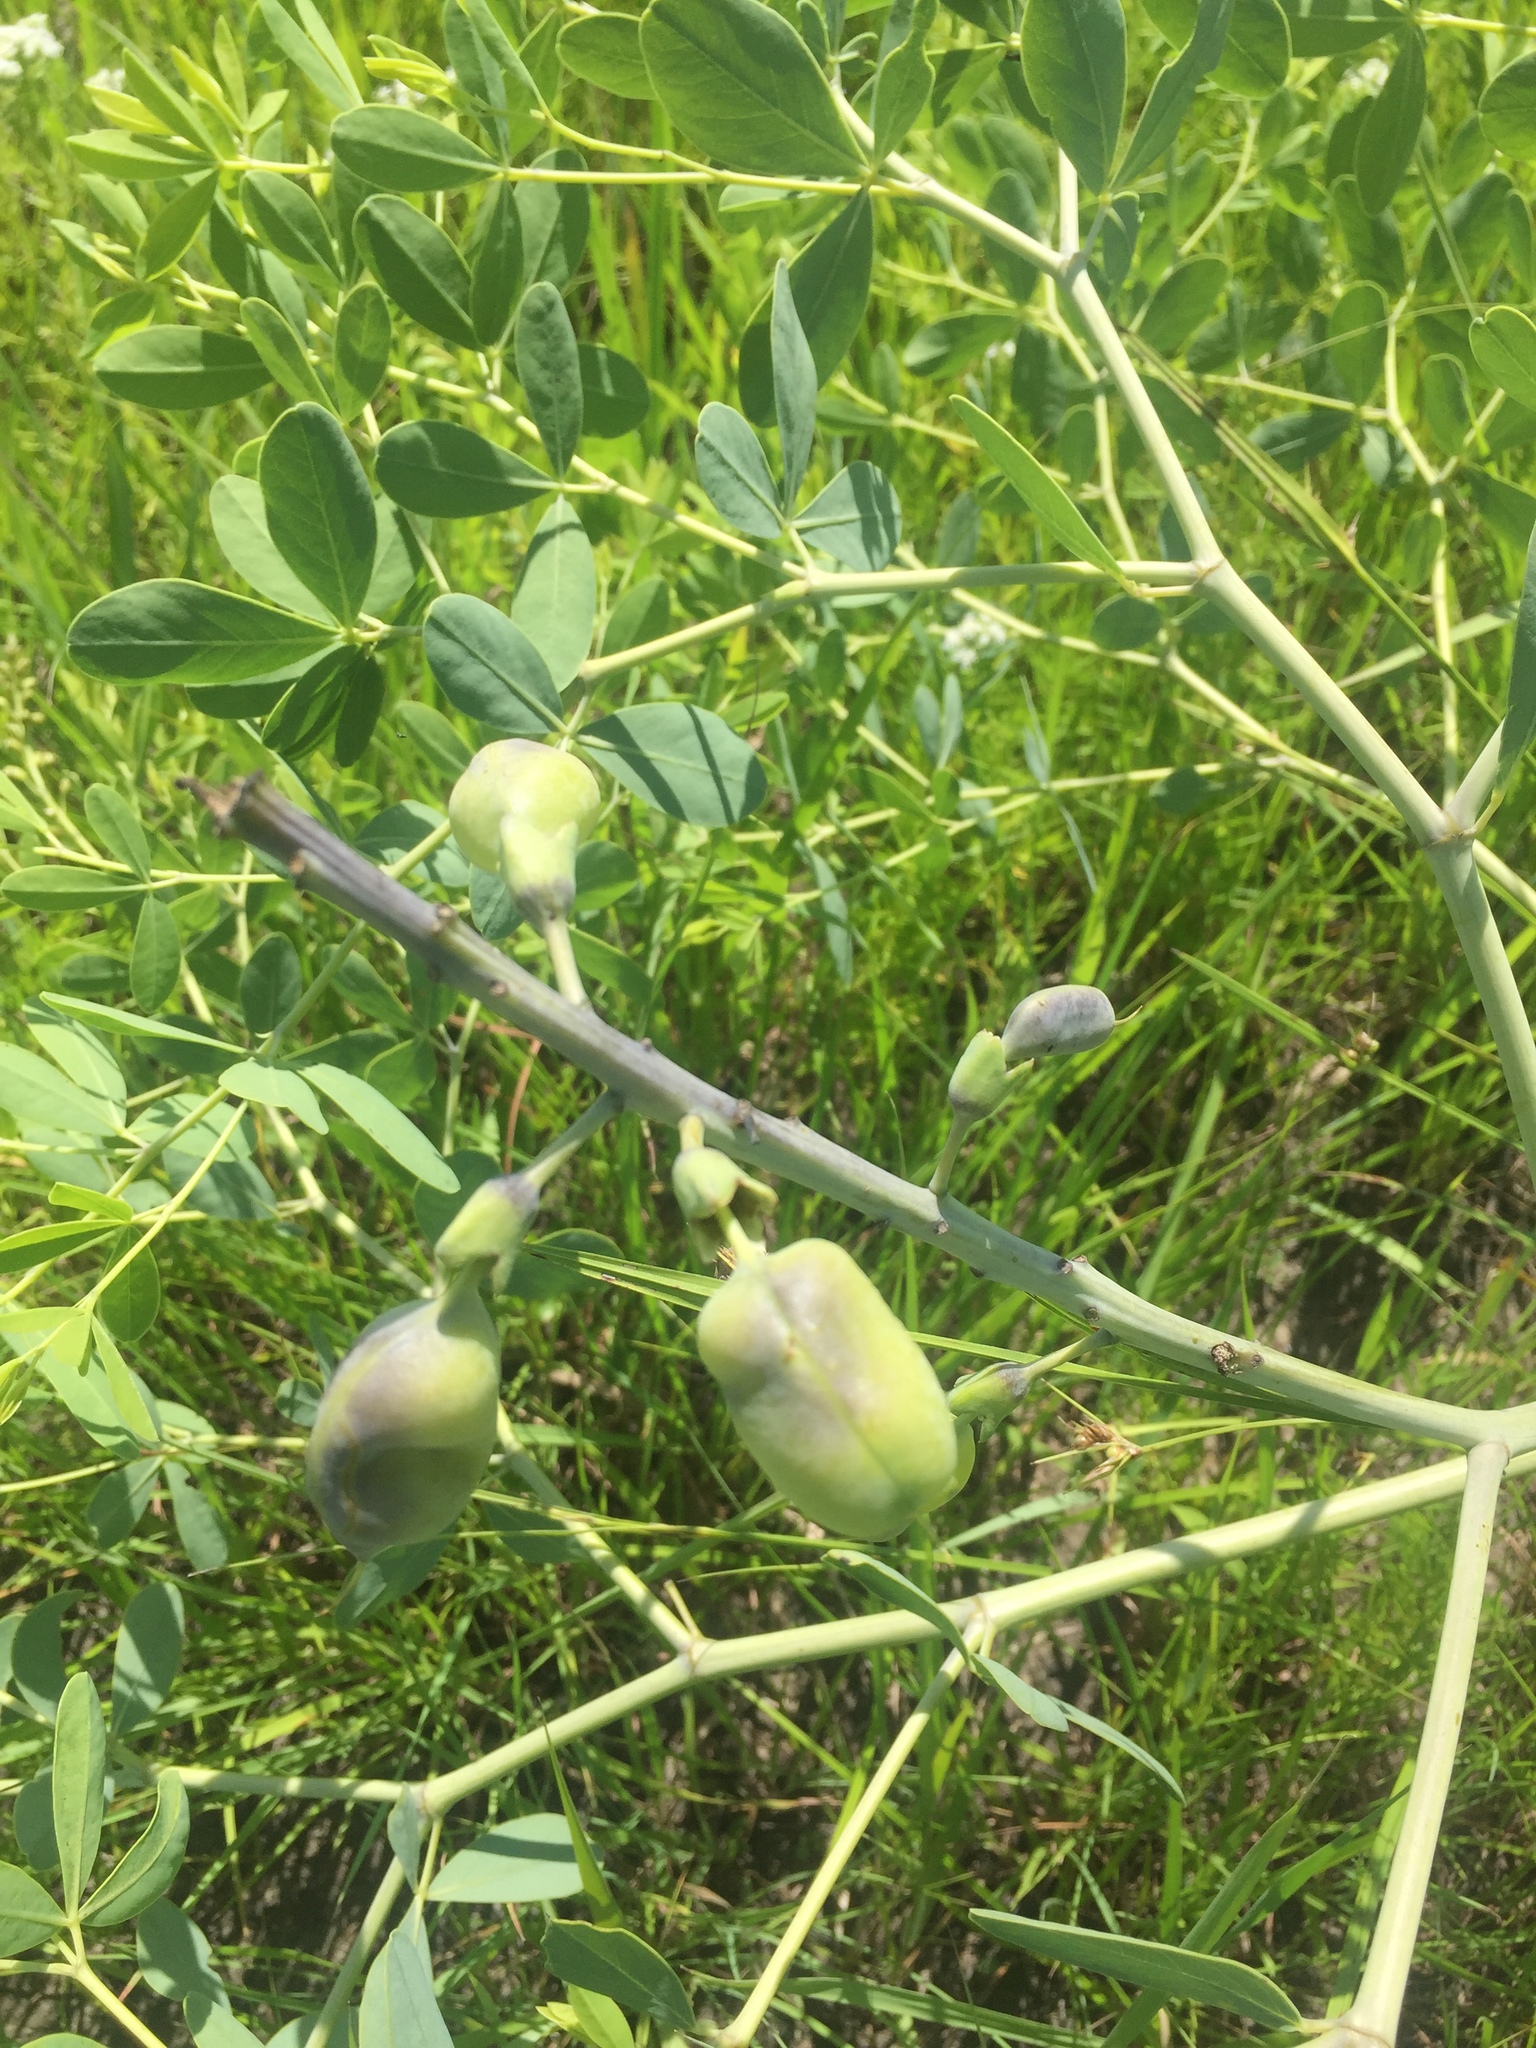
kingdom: Plantae
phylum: Tracheophyta
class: Magnoliopsida
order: Fabales
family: Fabaceae
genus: Baptisia
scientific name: Baptisia alba
